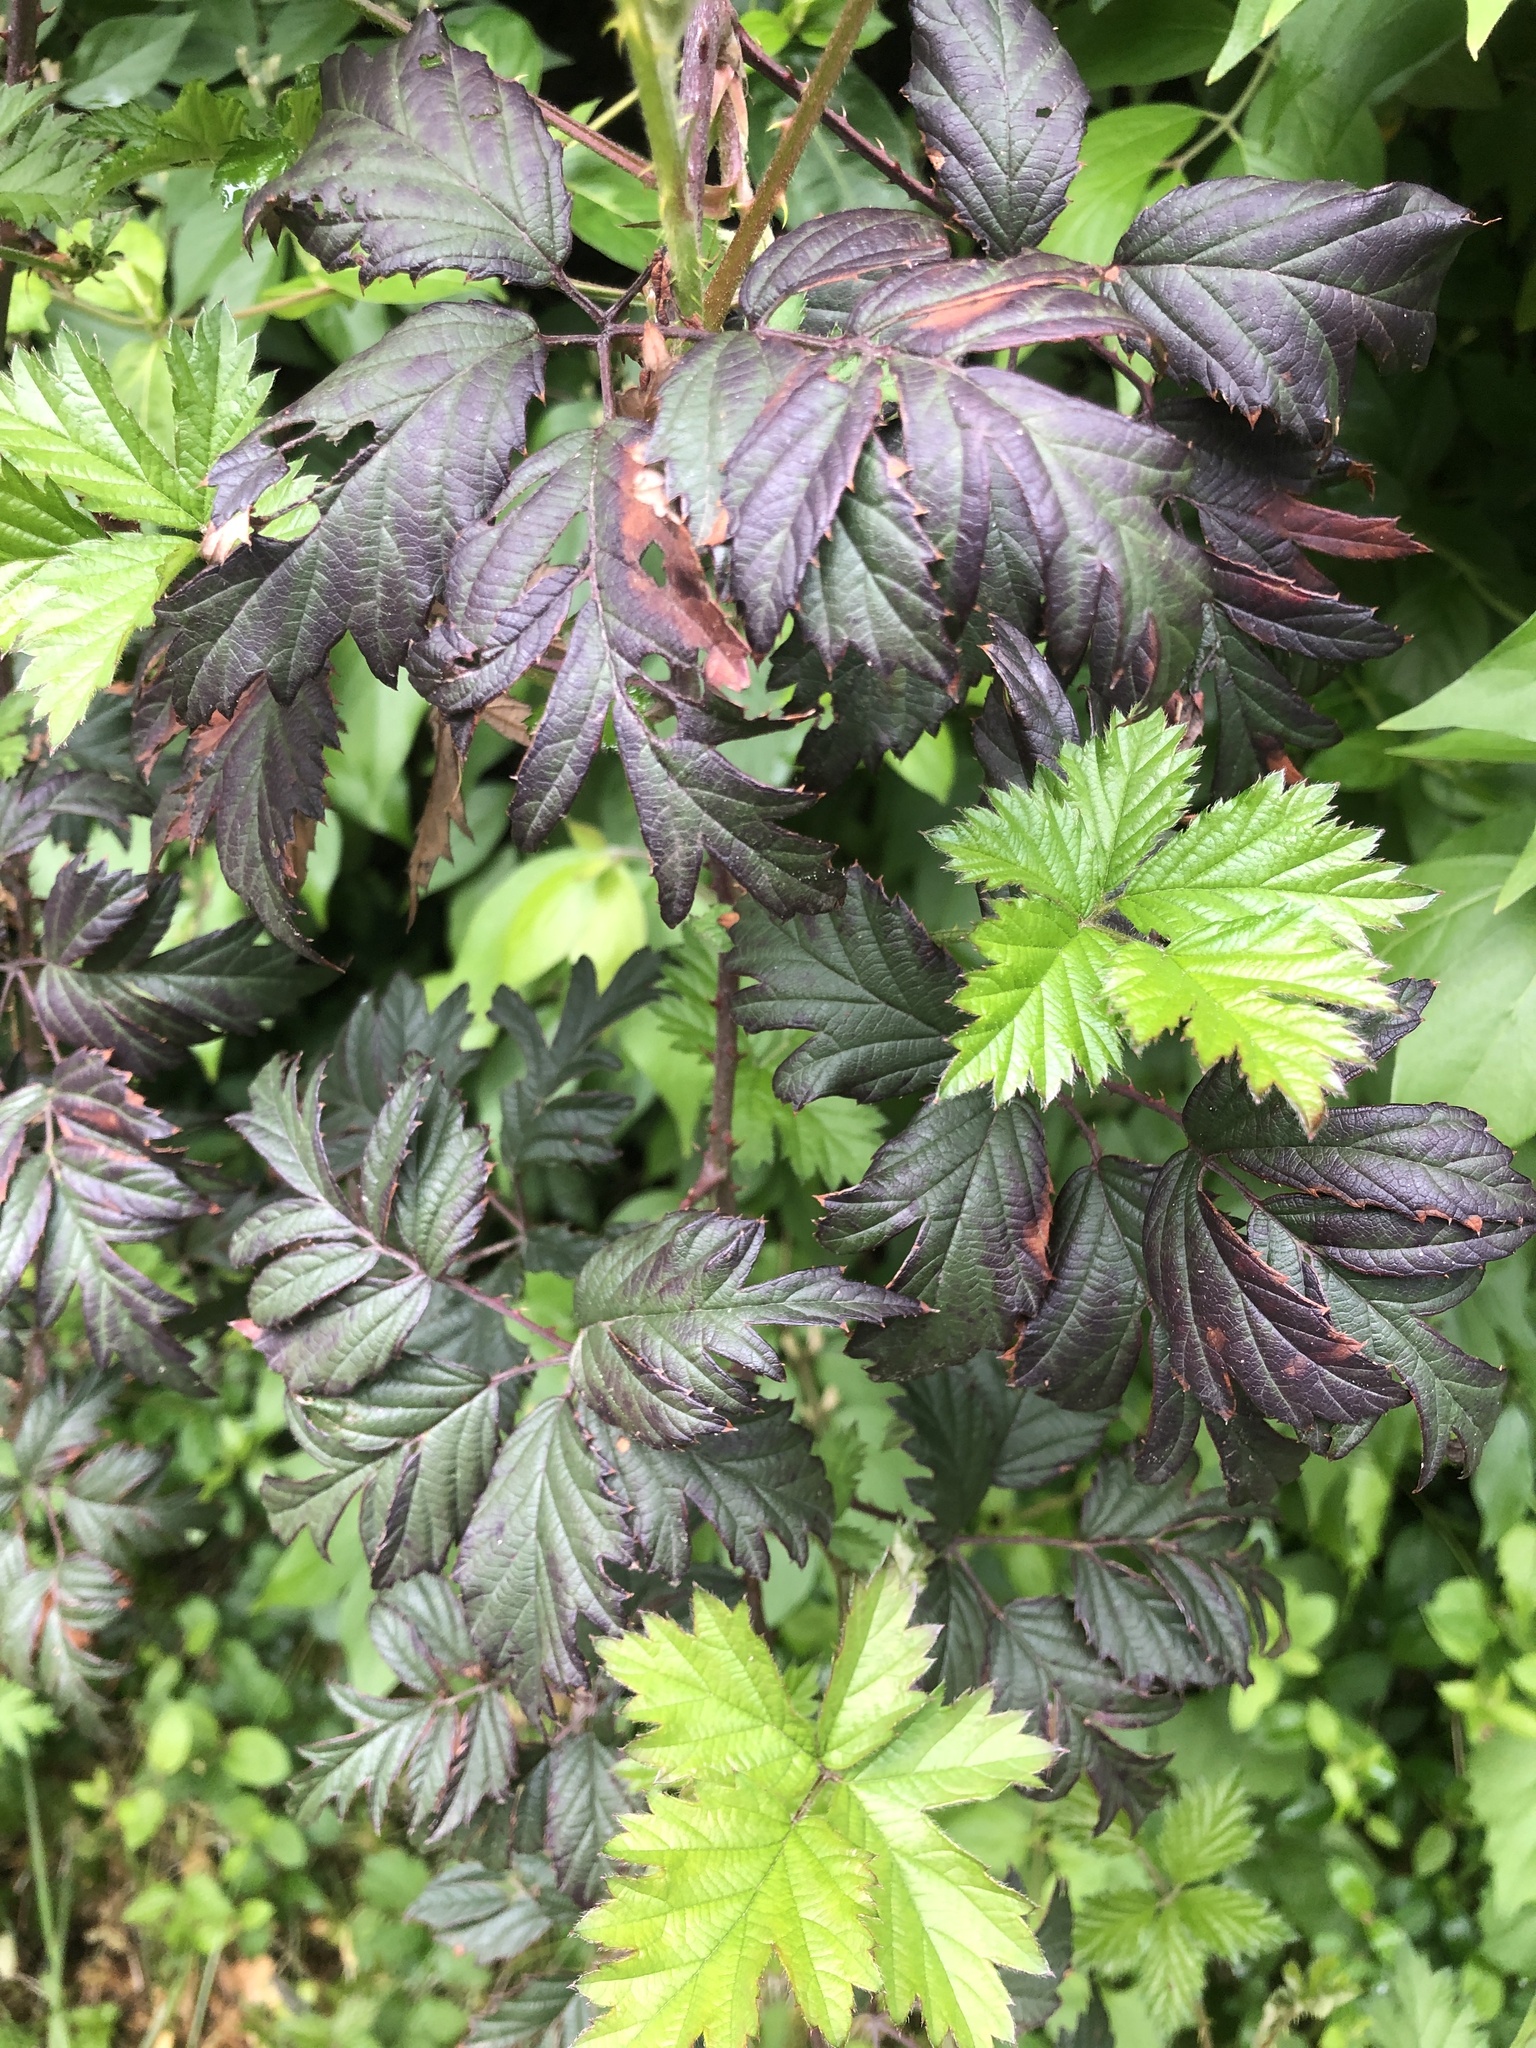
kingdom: Plantae
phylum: Tracheophyta
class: Magnoliopsida
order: Rosales
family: Rosaceae
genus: Rubus
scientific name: Rubus laciniatus
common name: Evergreen blackberry
